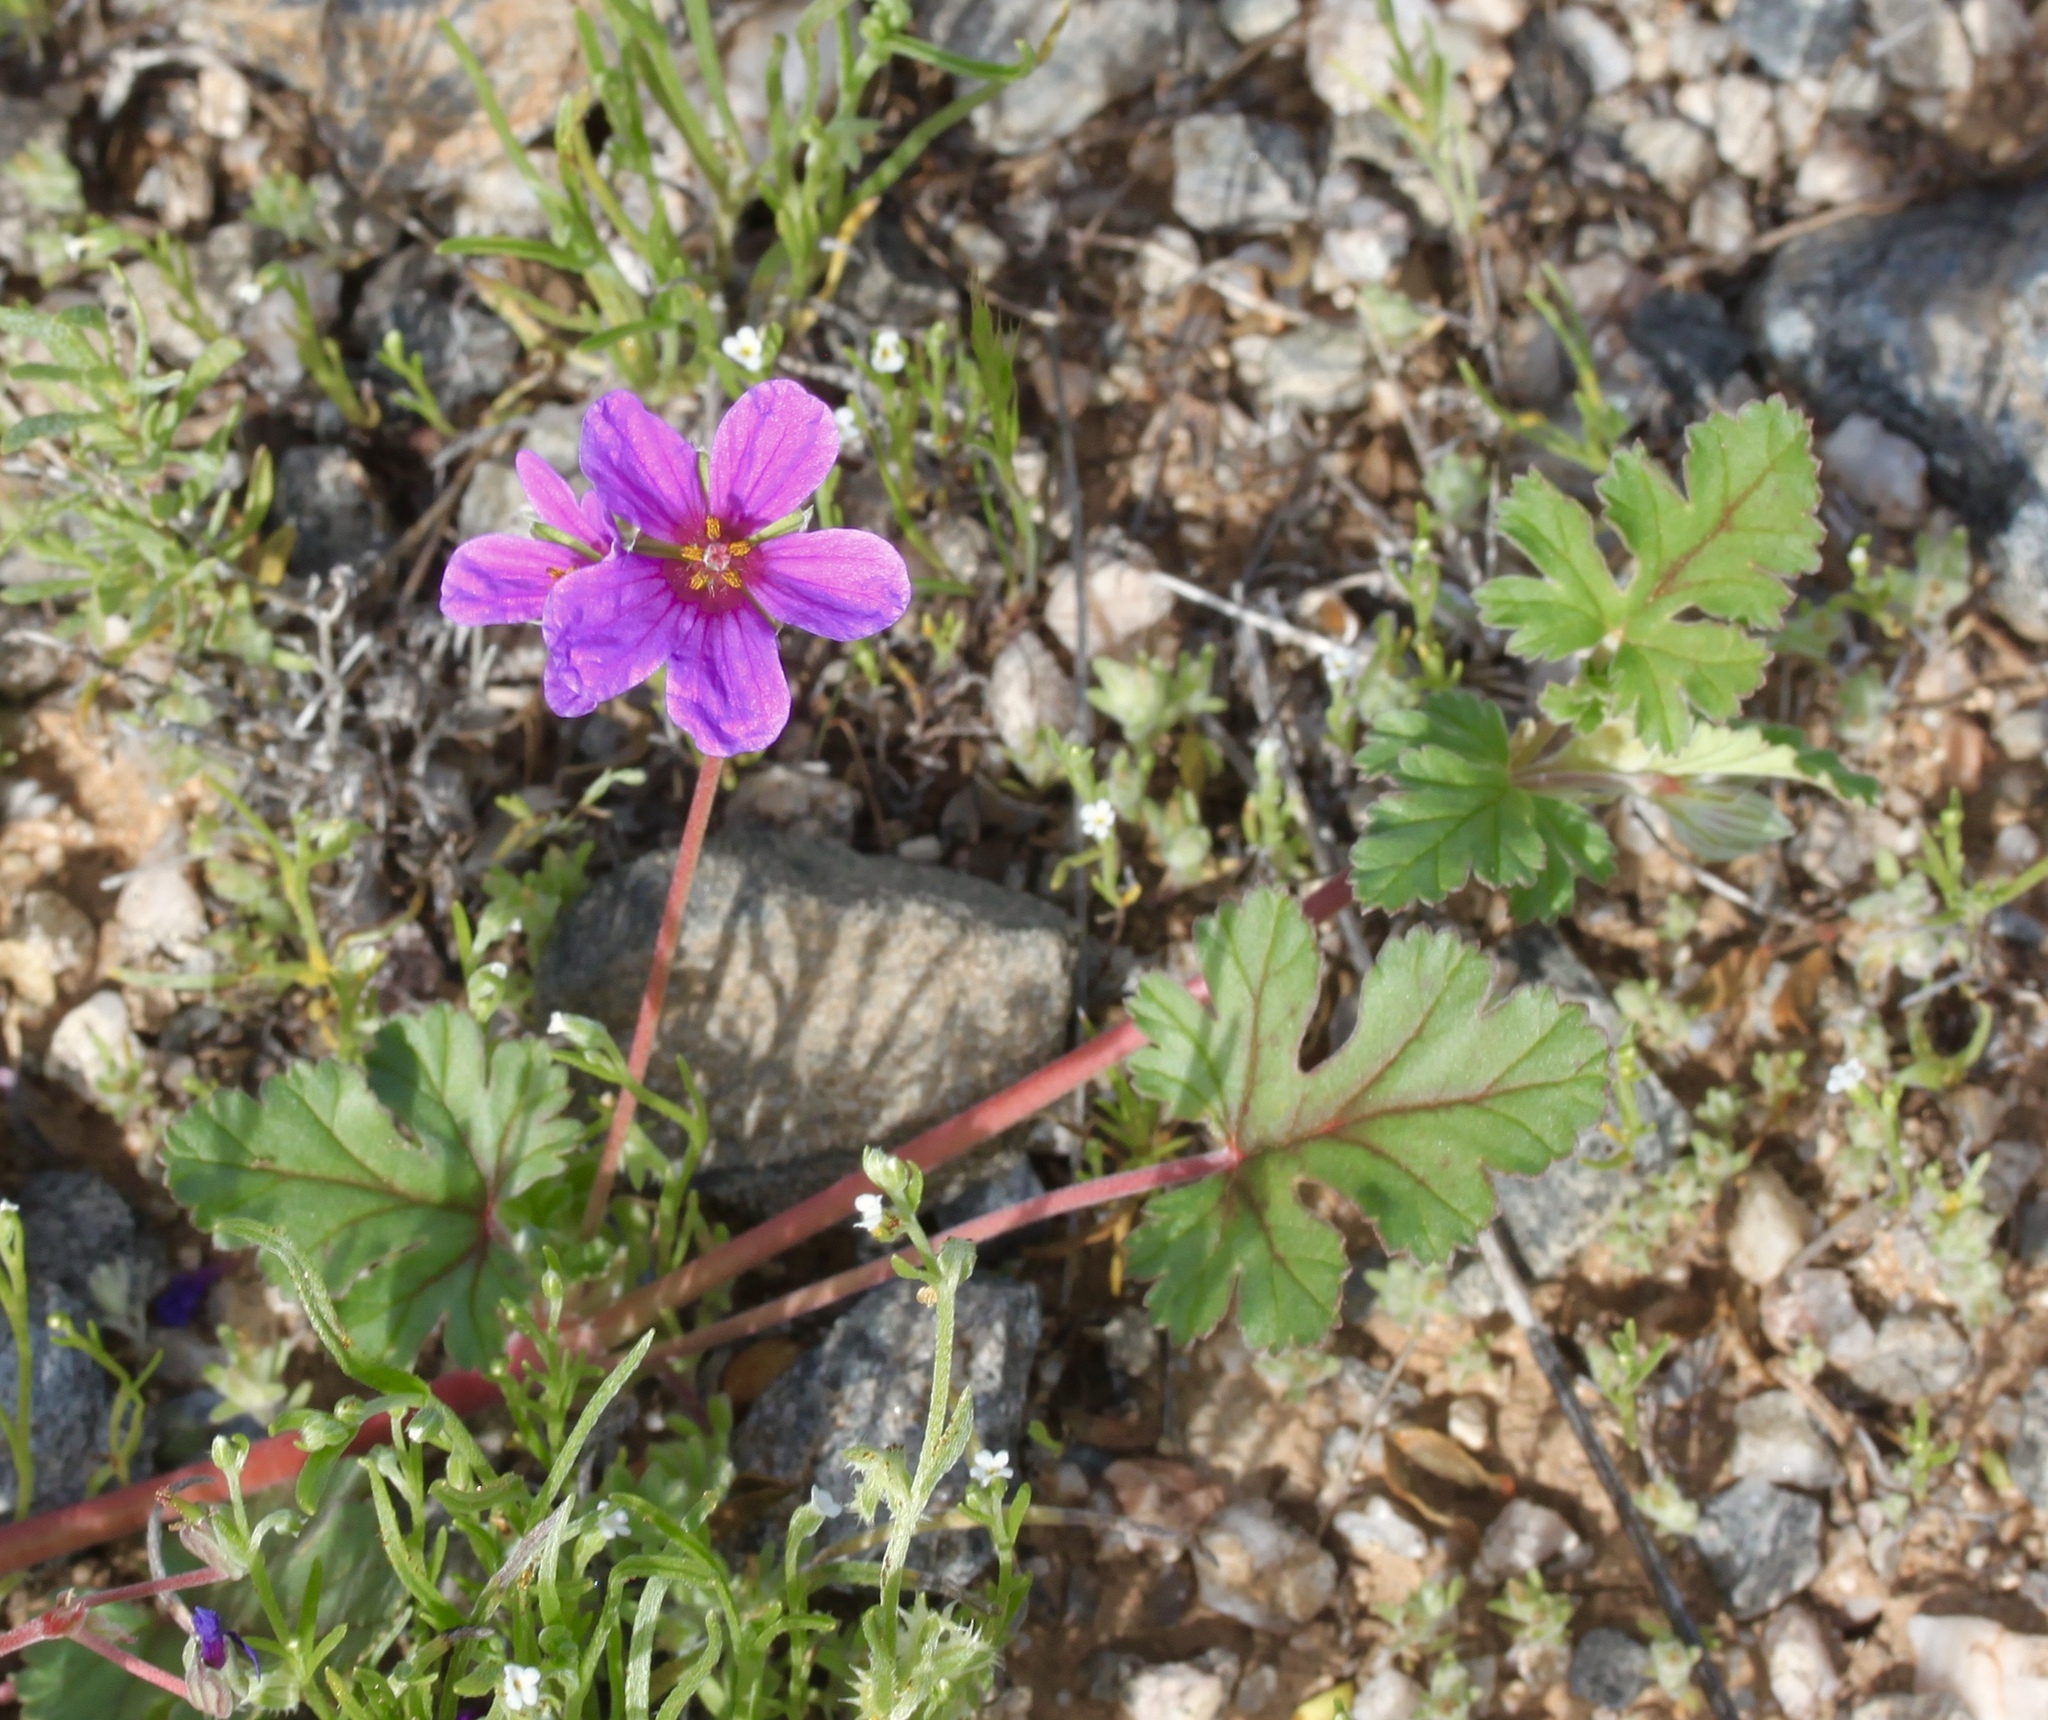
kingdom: Plantae
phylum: Tracheophyta
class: Magnoliopsida
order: Geraniales
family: Geraniaceae
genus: Erodium
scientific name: Erodium texanum
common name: Texas stork's-bill
